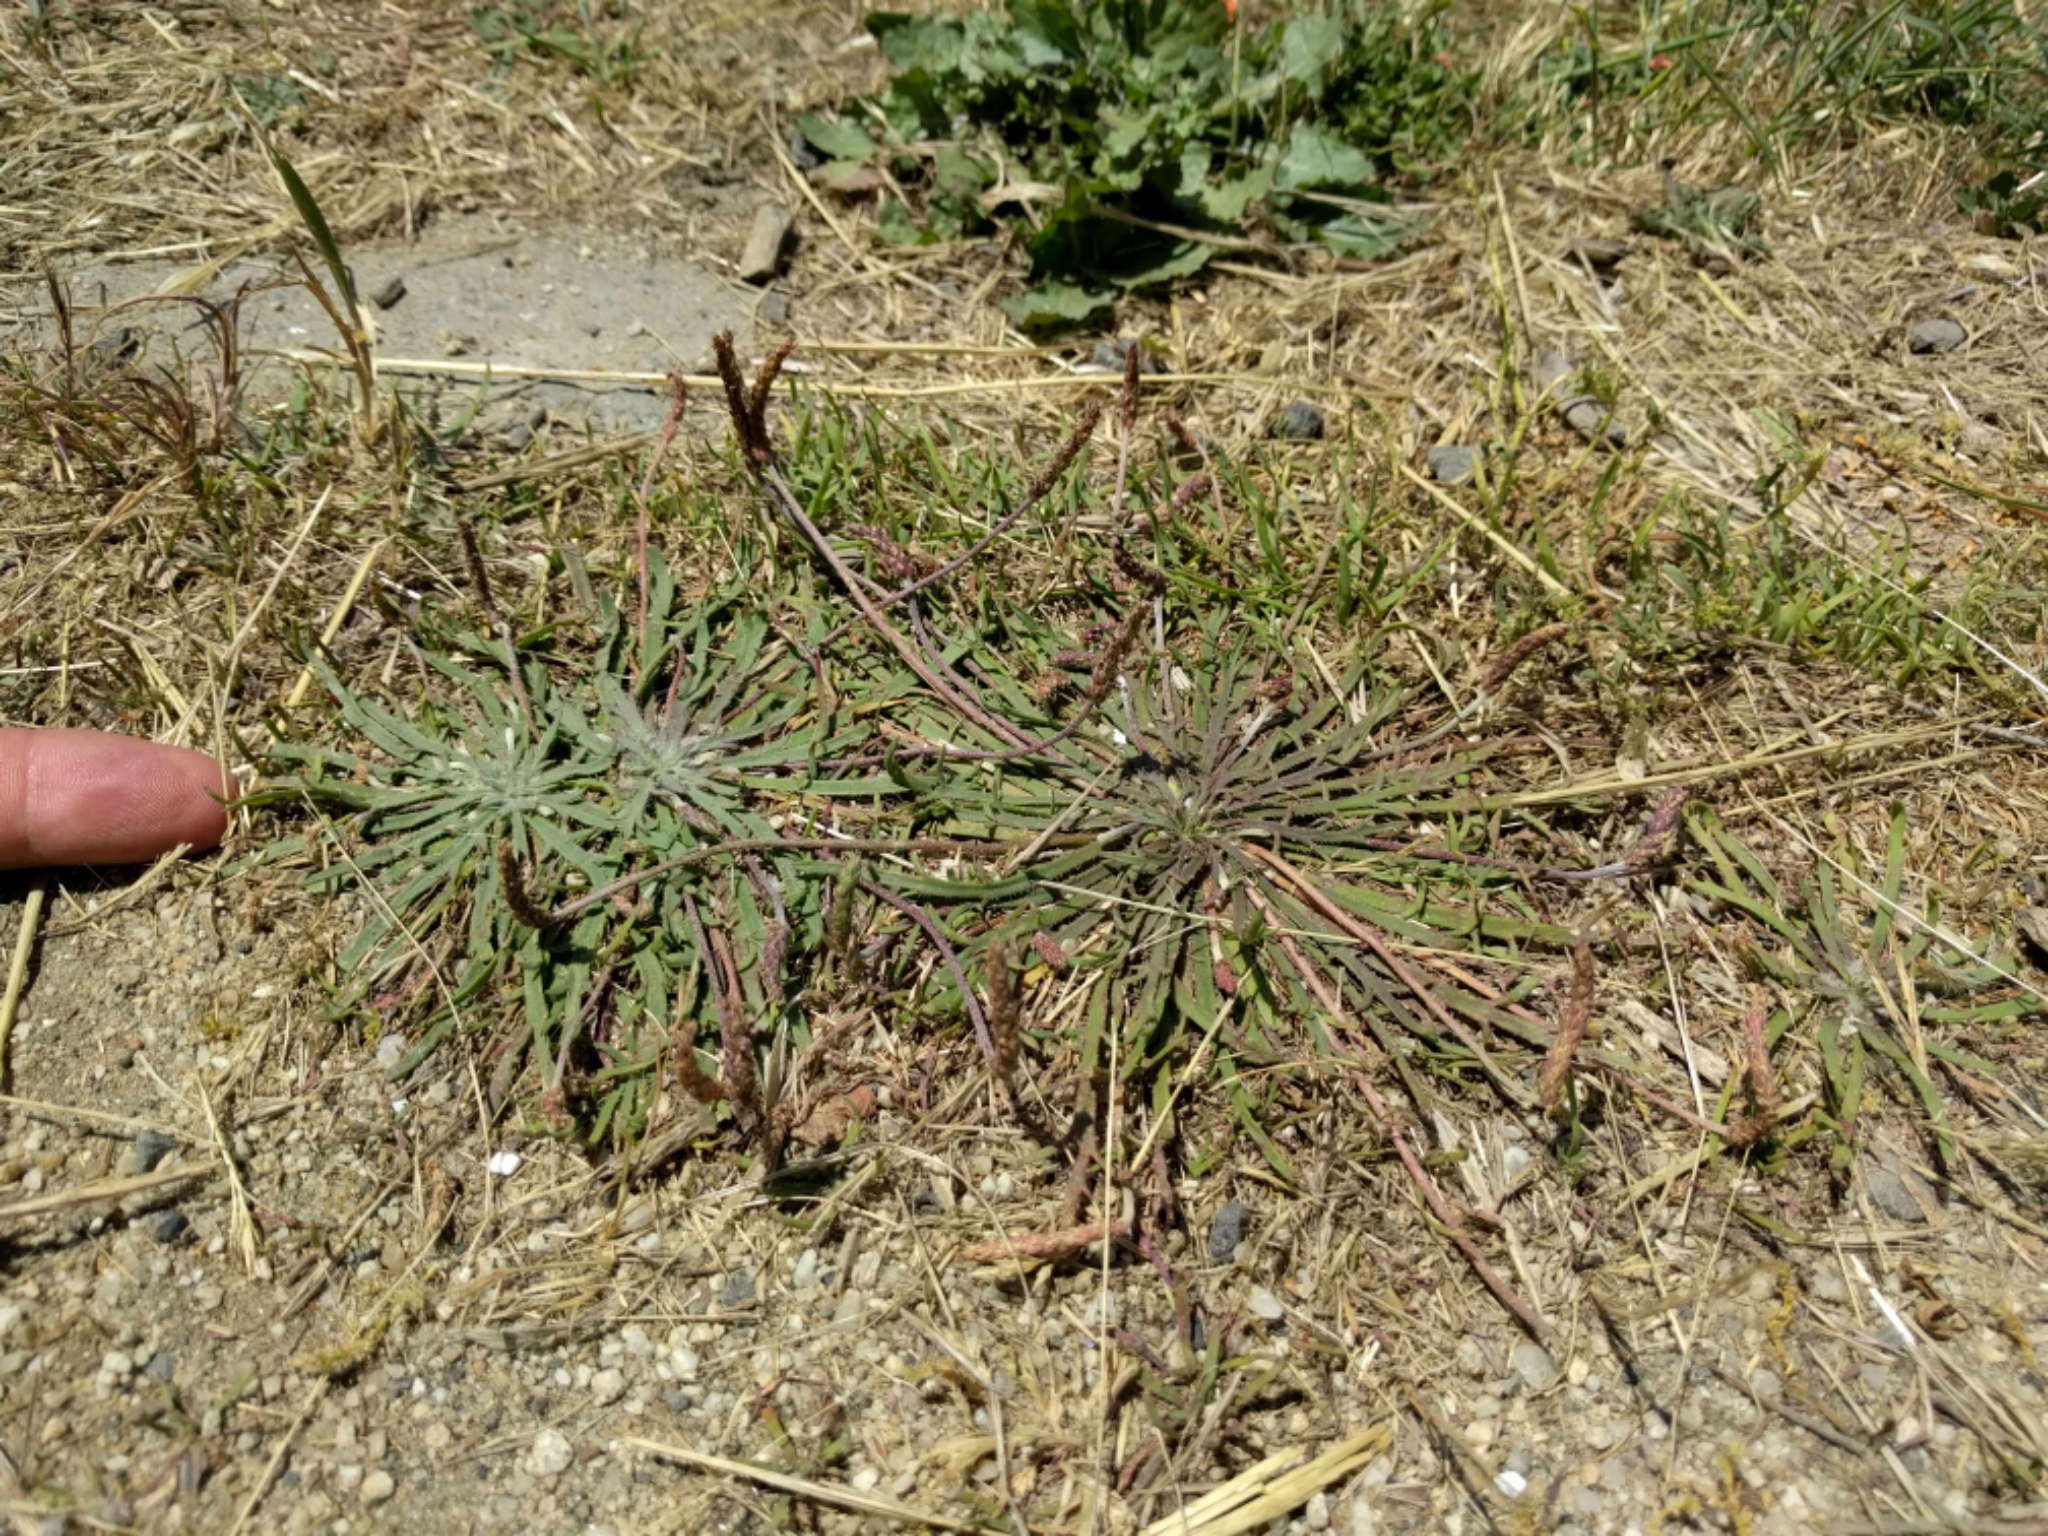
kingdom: Plantae
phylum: Tracheophyta
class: Magnoliopsida
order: Lamiales
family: Plantaginaceae
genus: Plantago
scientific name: Plantago coronopus
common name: Buck's-horn plantain
